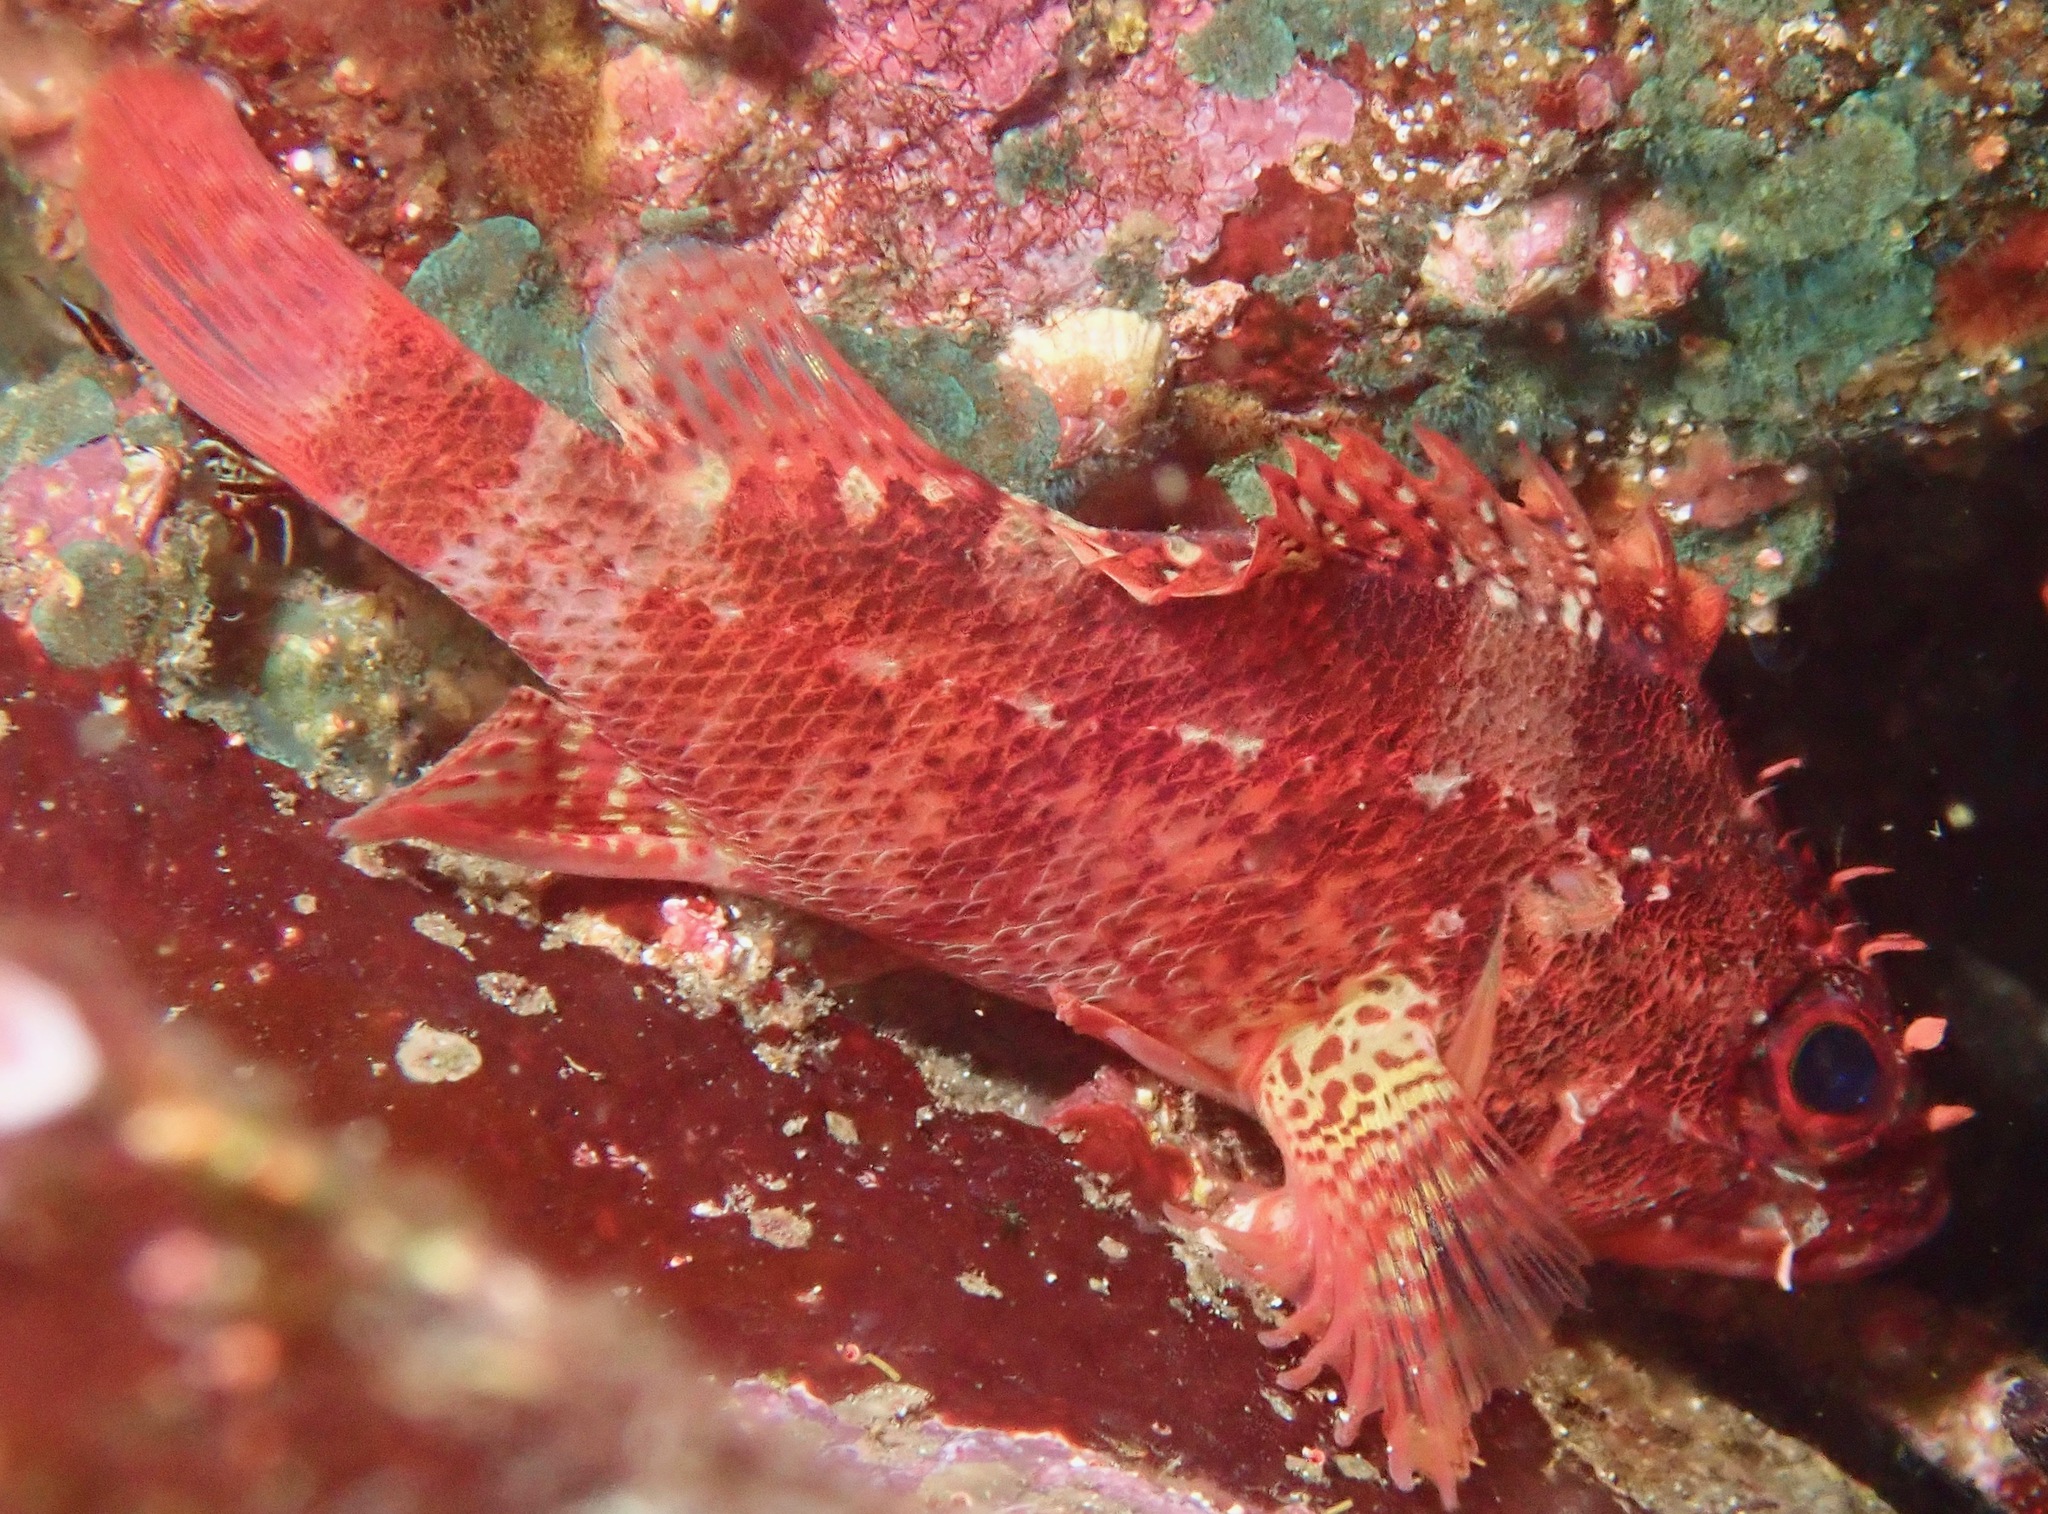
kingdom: Animalia
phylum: Chordata
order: Scorpaeniformes
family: Scorpaenidae
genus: Scorpaenodes
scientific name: Scorpaenodes xyris
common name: Rainbow scorpionfish
